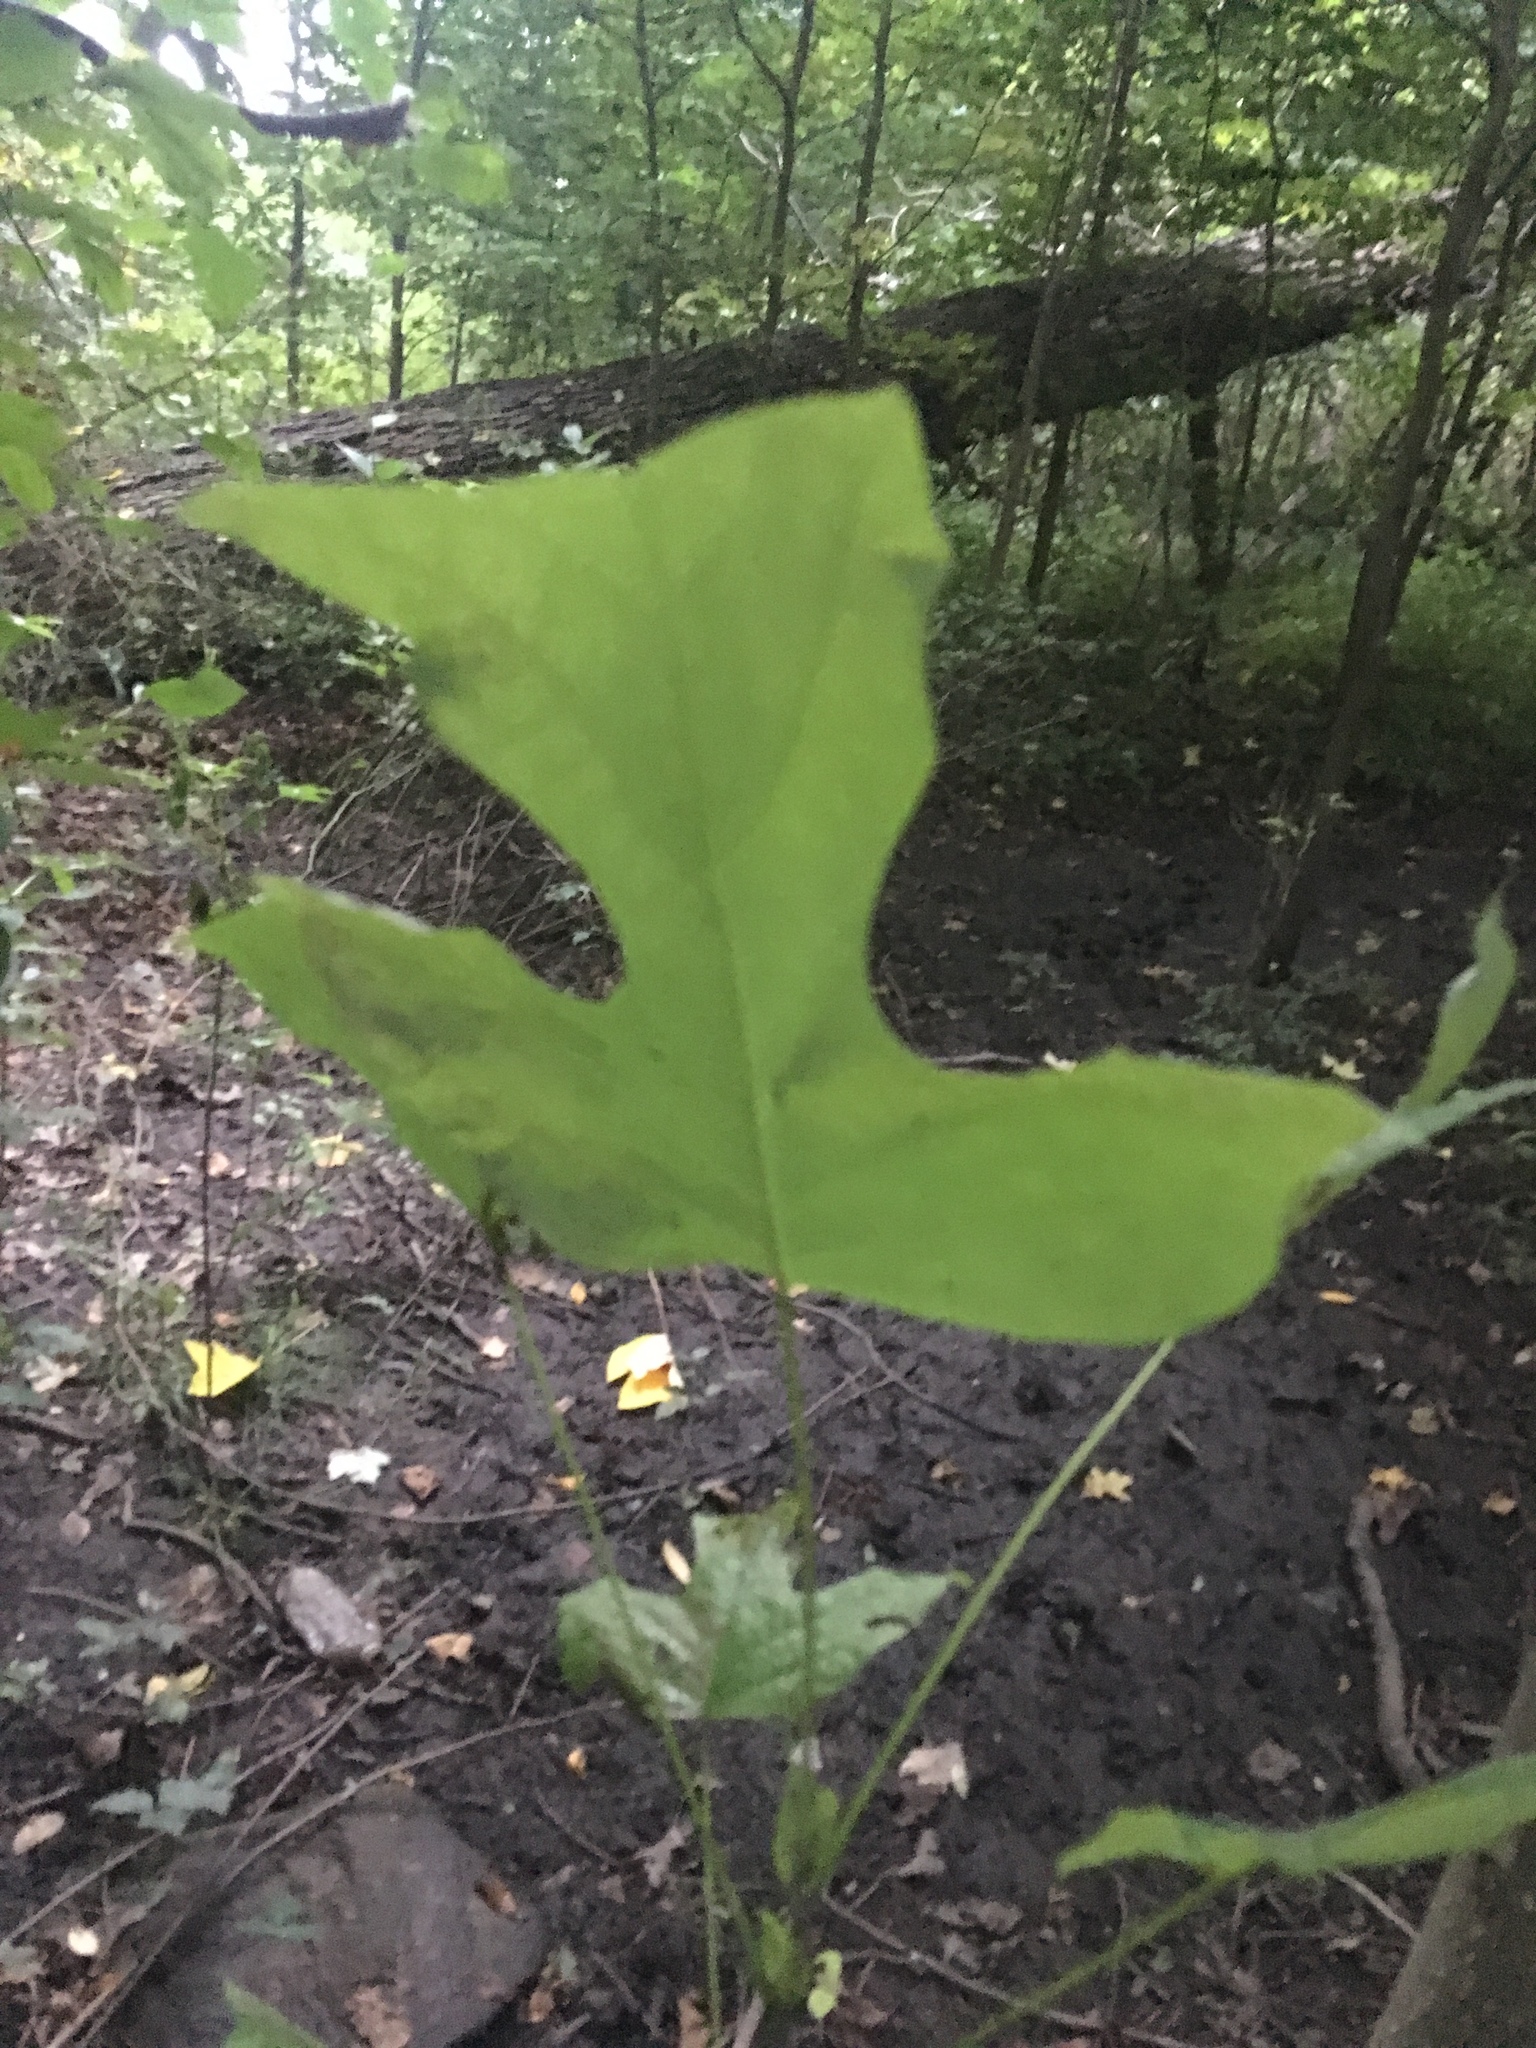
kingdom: Plantae
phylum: Tracheophyta
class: Magnoliopsida
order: Magnoliales
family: Magnoliaceae
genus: Liriodendron
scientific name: Liriodendron tulipifera
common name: Tulip tree
